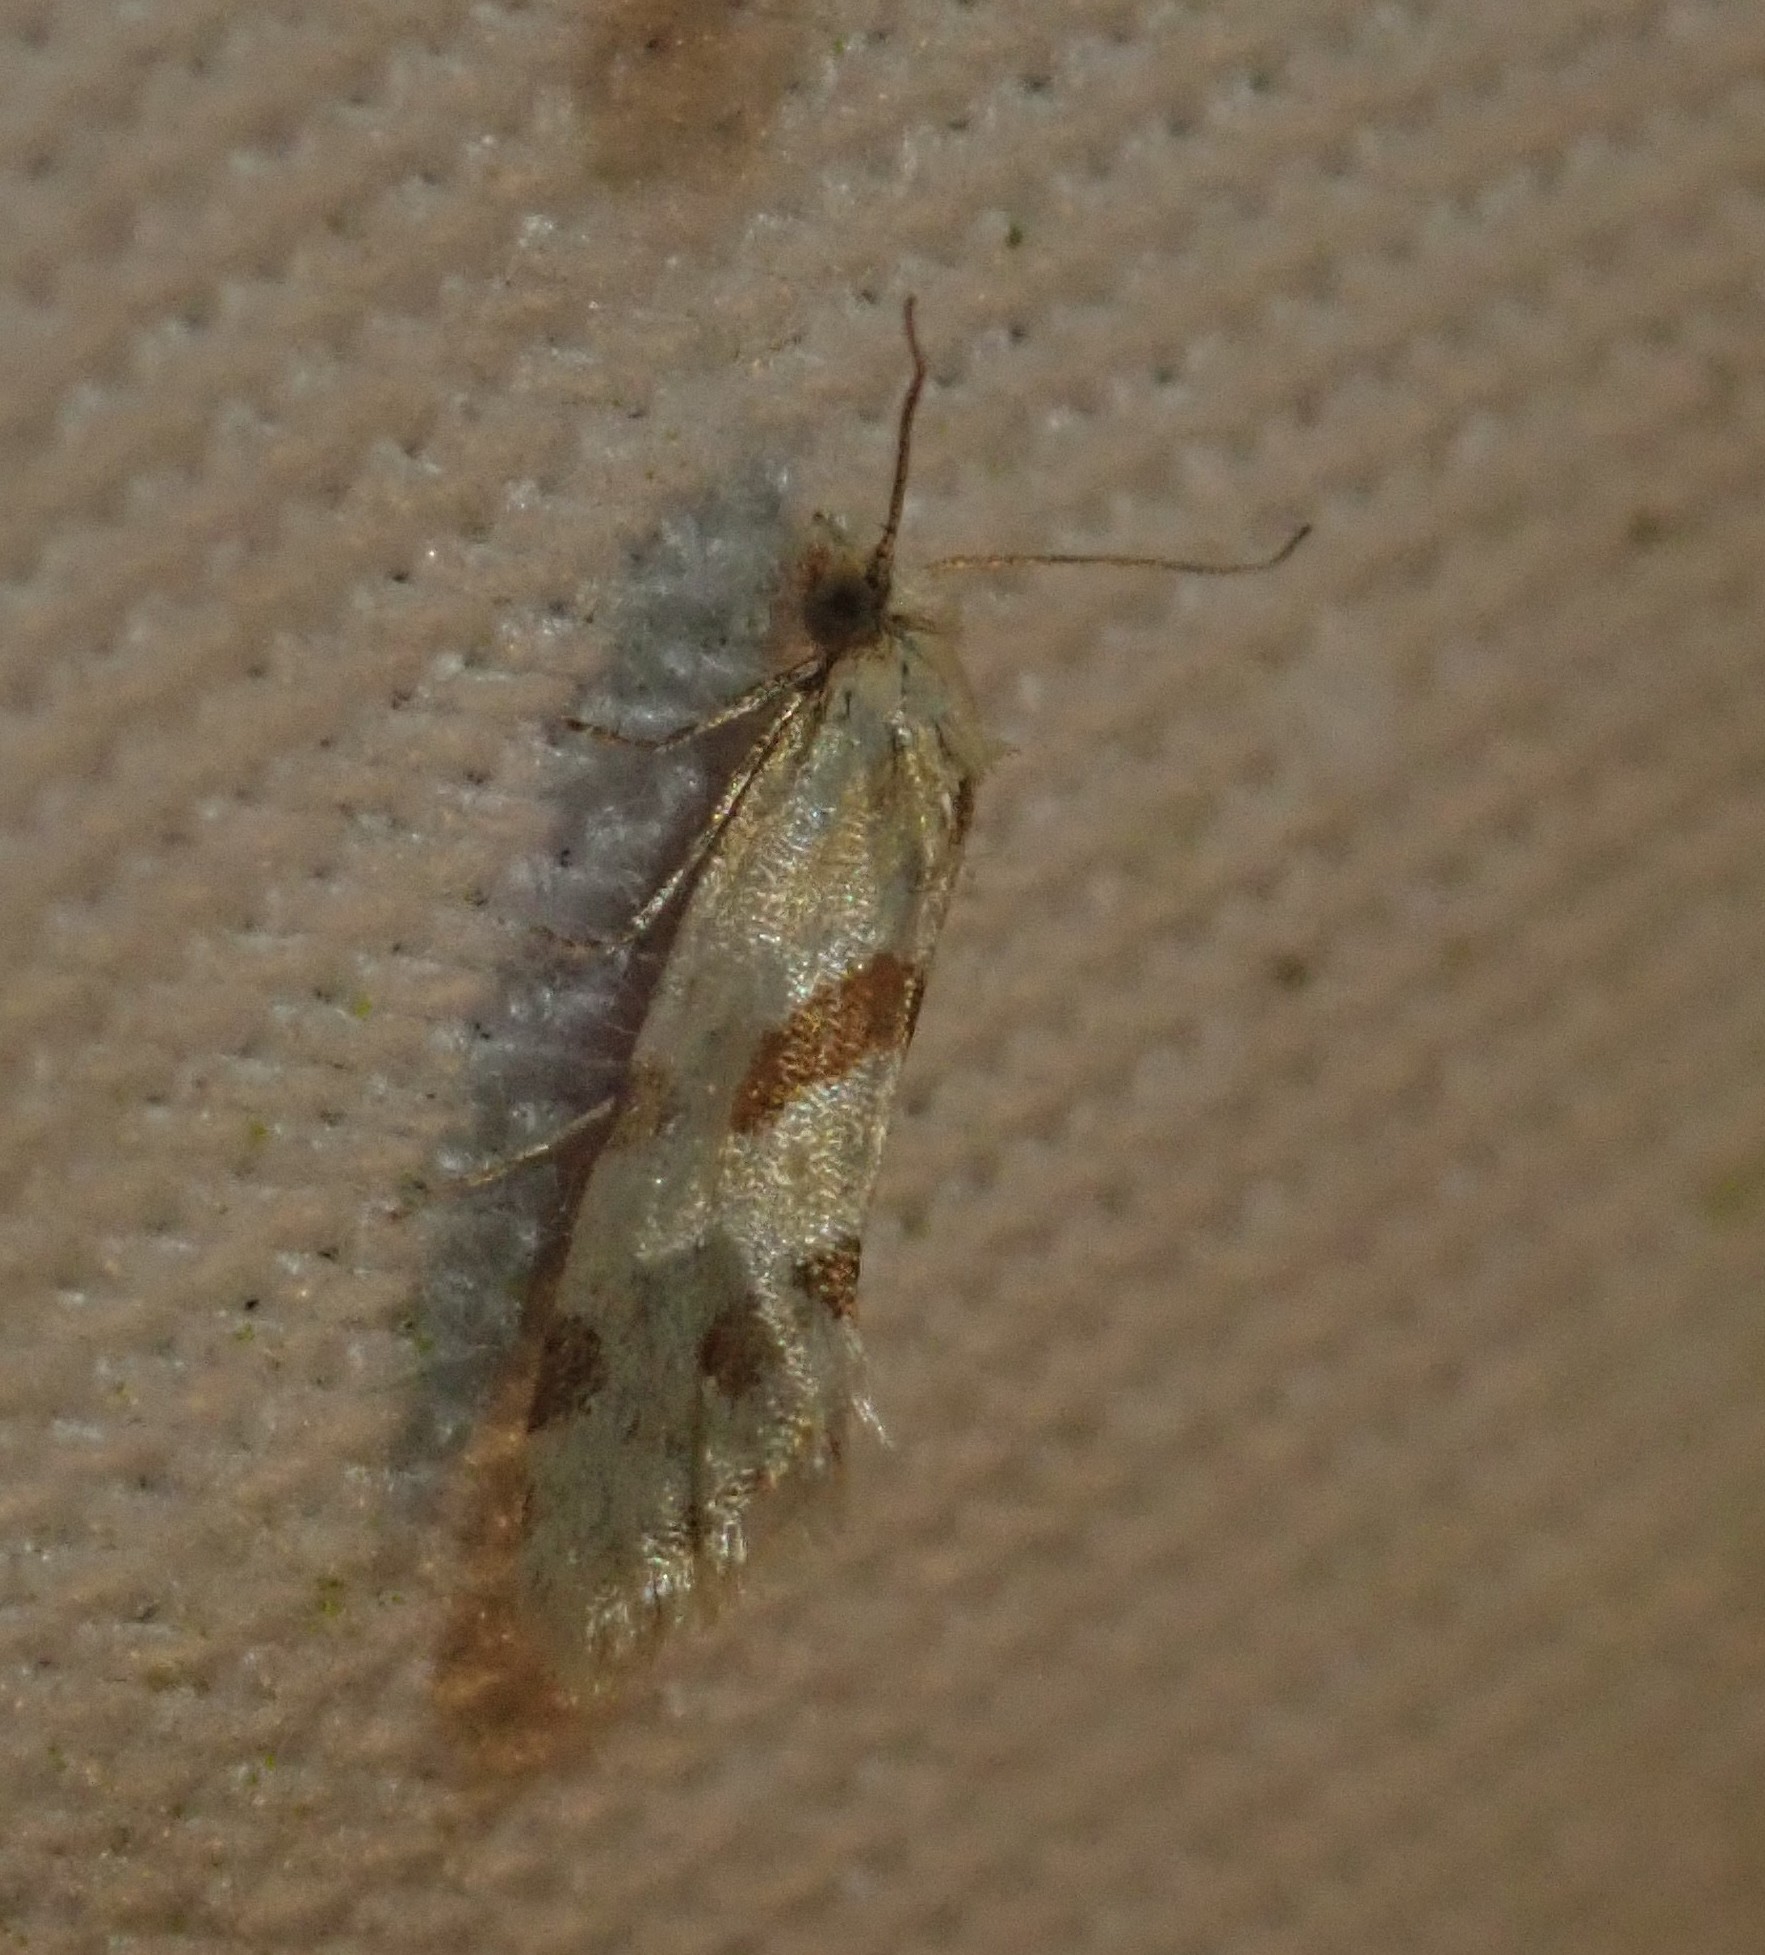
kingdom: Animalia
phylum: Arthropoda
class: Insecta
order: Lepidoptera
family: Tortricidae
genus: Aethes
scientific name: Aethes smeathmanniana
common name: Yarrow conch
